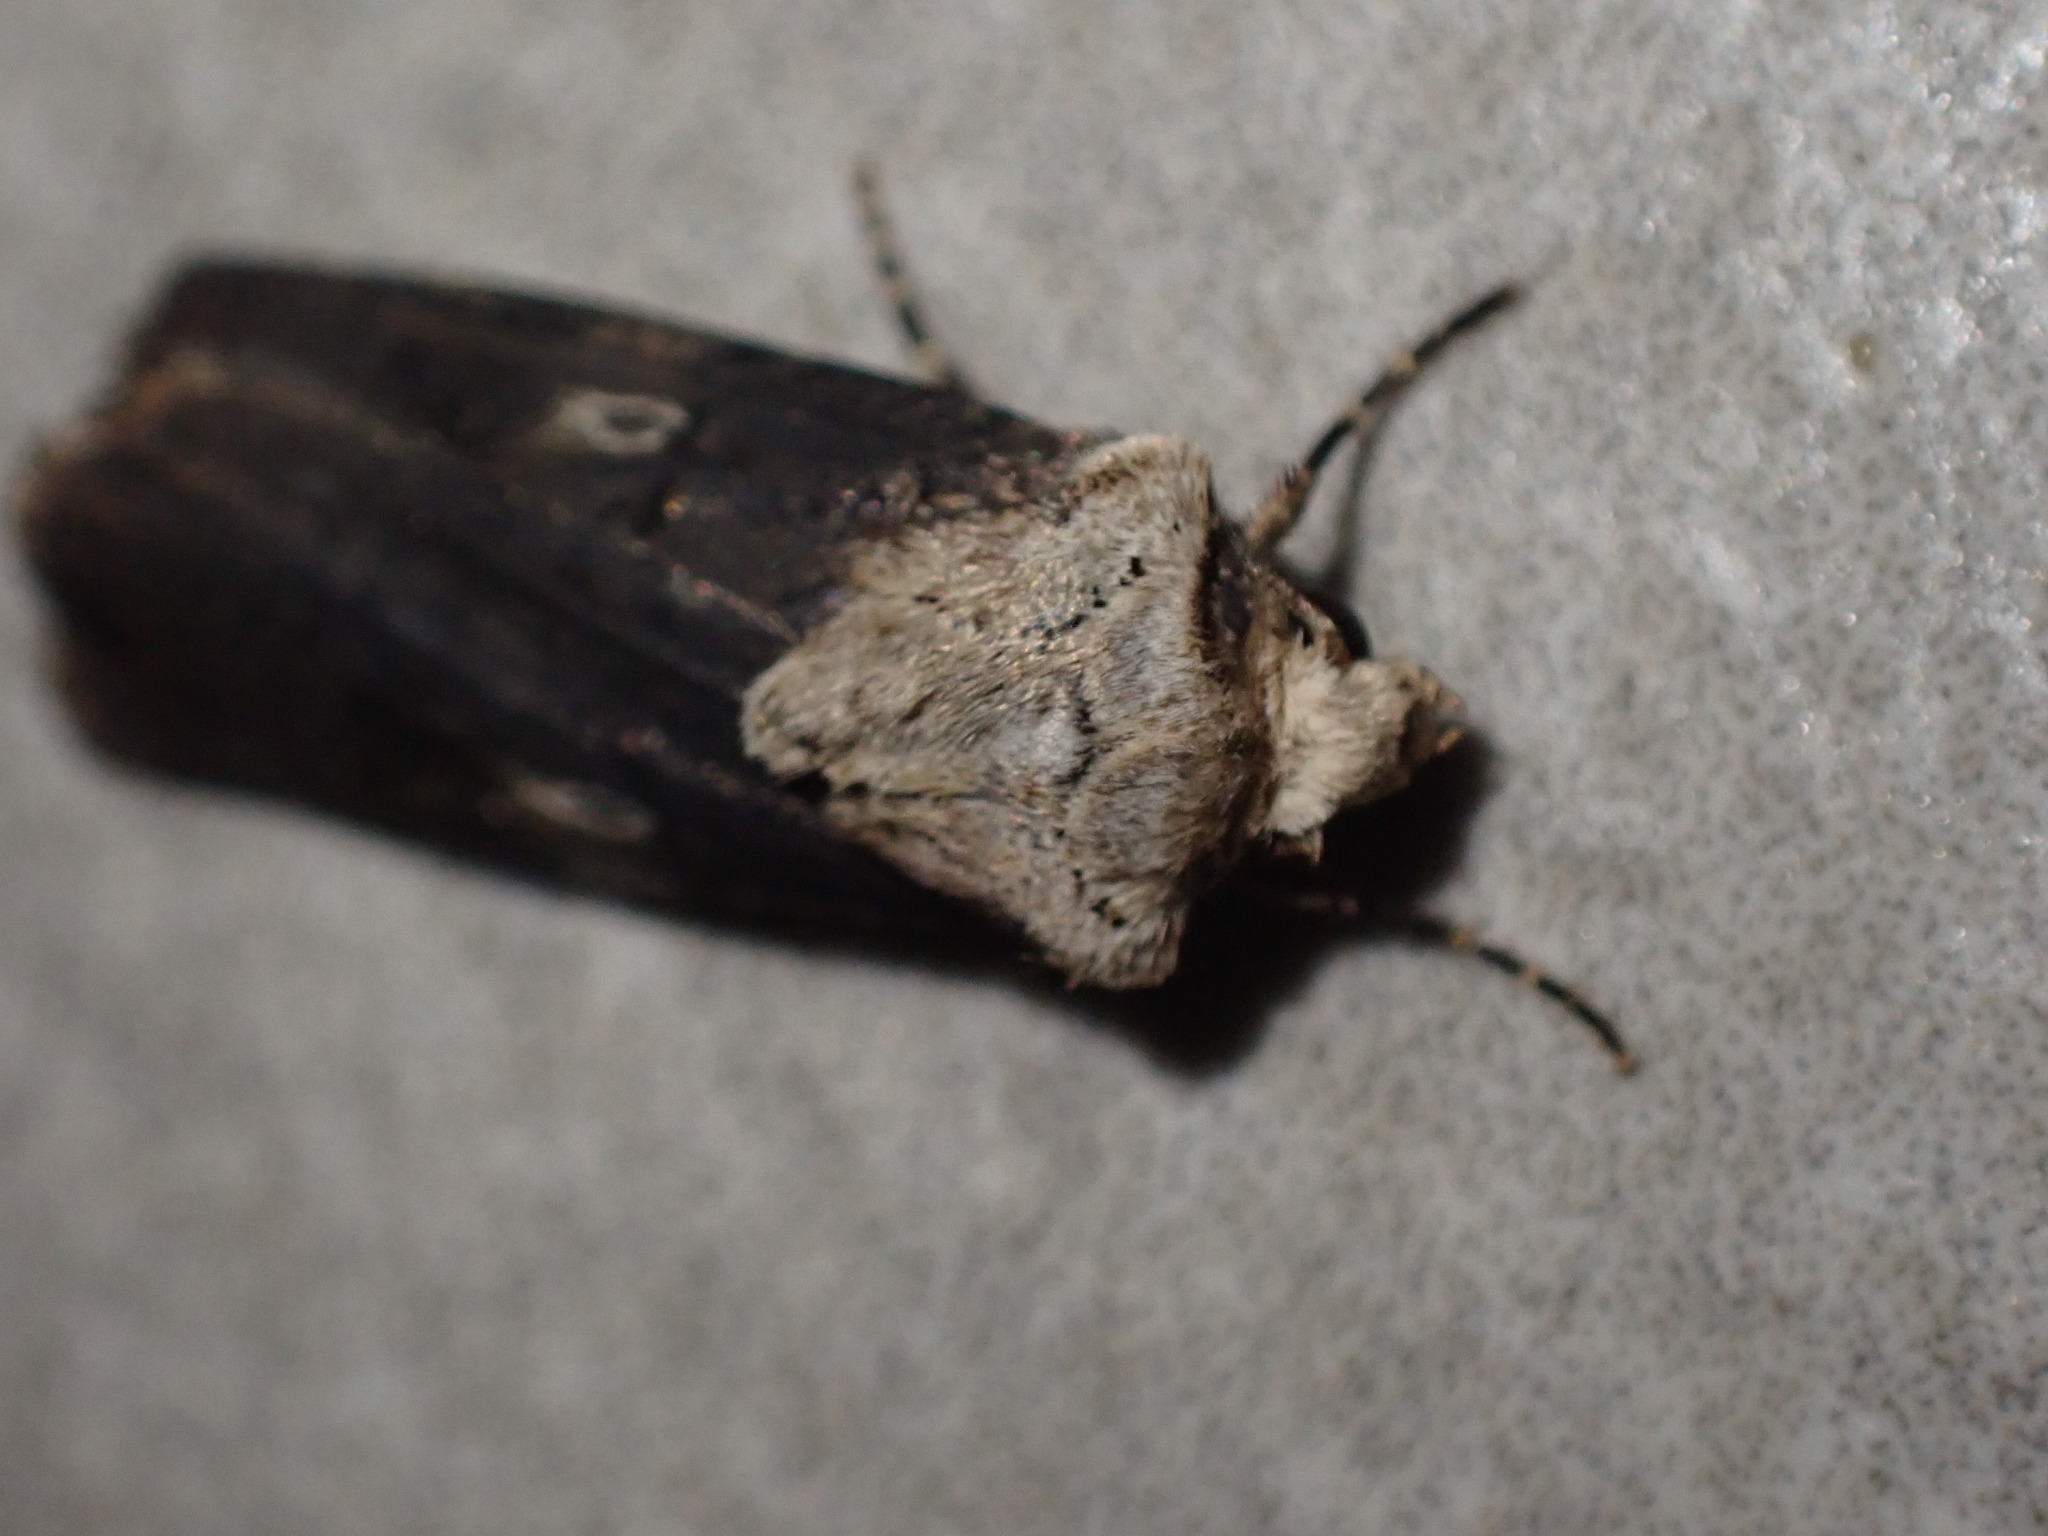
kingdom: Animalia
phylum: Arthropoda
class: Insecta
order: Lepidoptera
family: Noctuidae
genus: Agrotis
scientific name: Agrotis puta
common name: Shuttle-shaped dart
